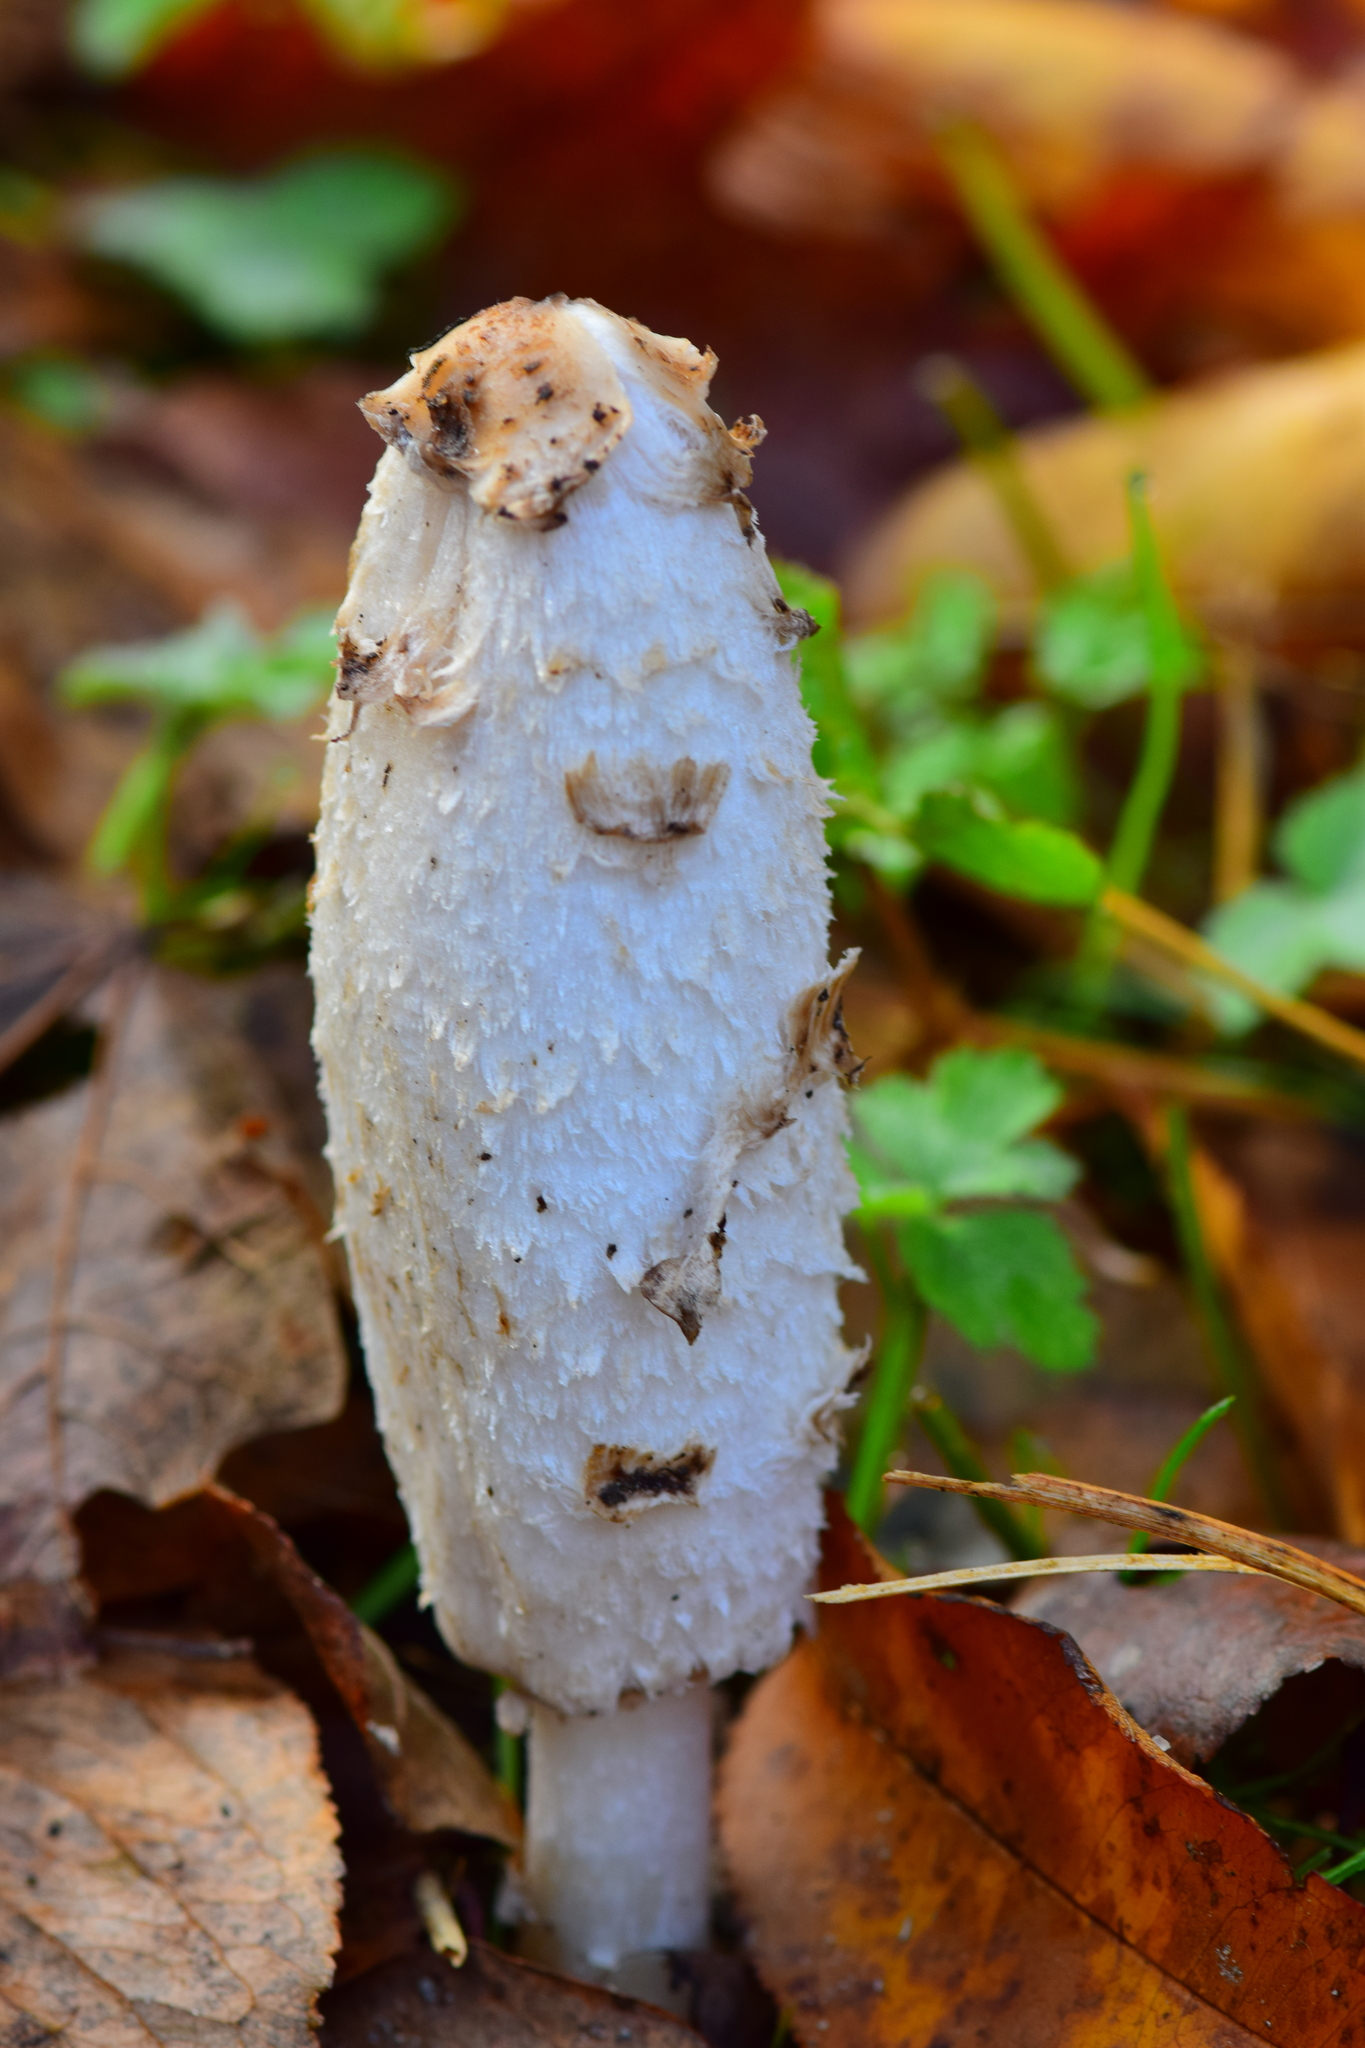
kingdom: Fungi
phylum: Basidiomycota
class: Agaricomycetes
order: Agaricales
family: Agaricaceae
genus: Coprinus
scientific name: Coprinus comatus
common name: Lawyer's wig
